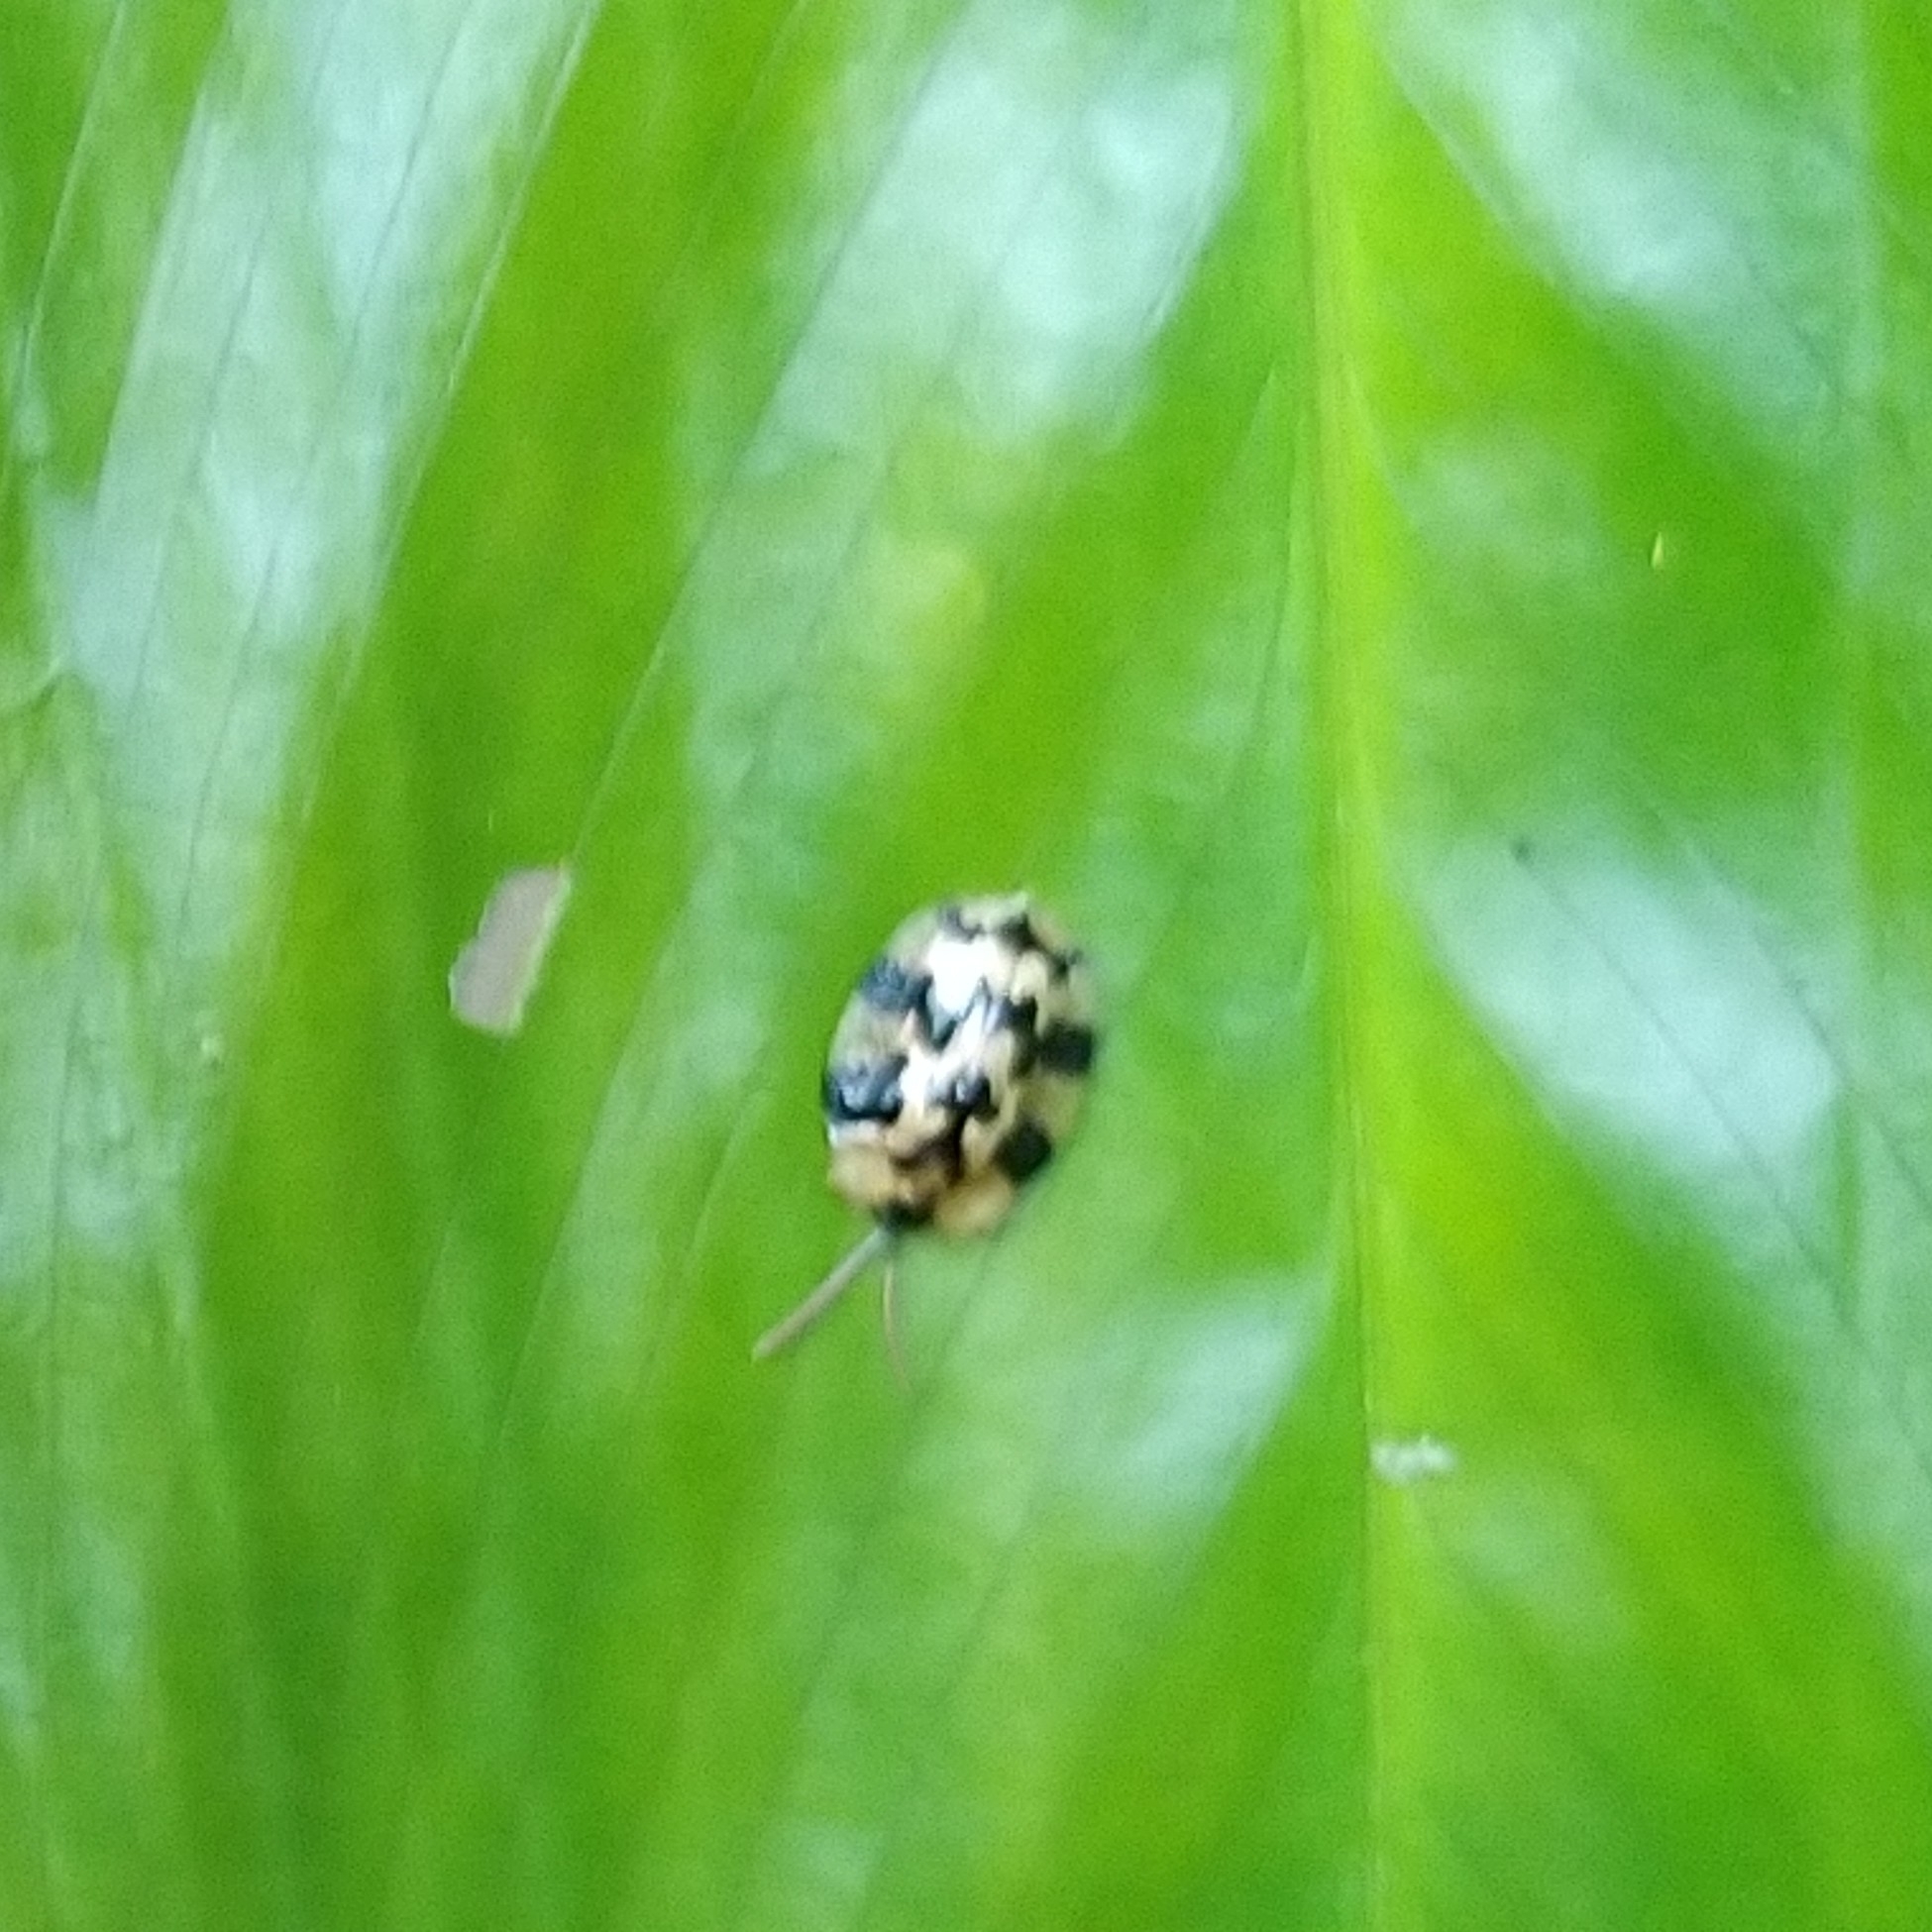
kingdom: Animalia
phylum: Arthropoda
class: Insecta
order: Coleoptera
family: Chrysomelidae
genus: Aslamidium
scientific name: Aslamidium capense
